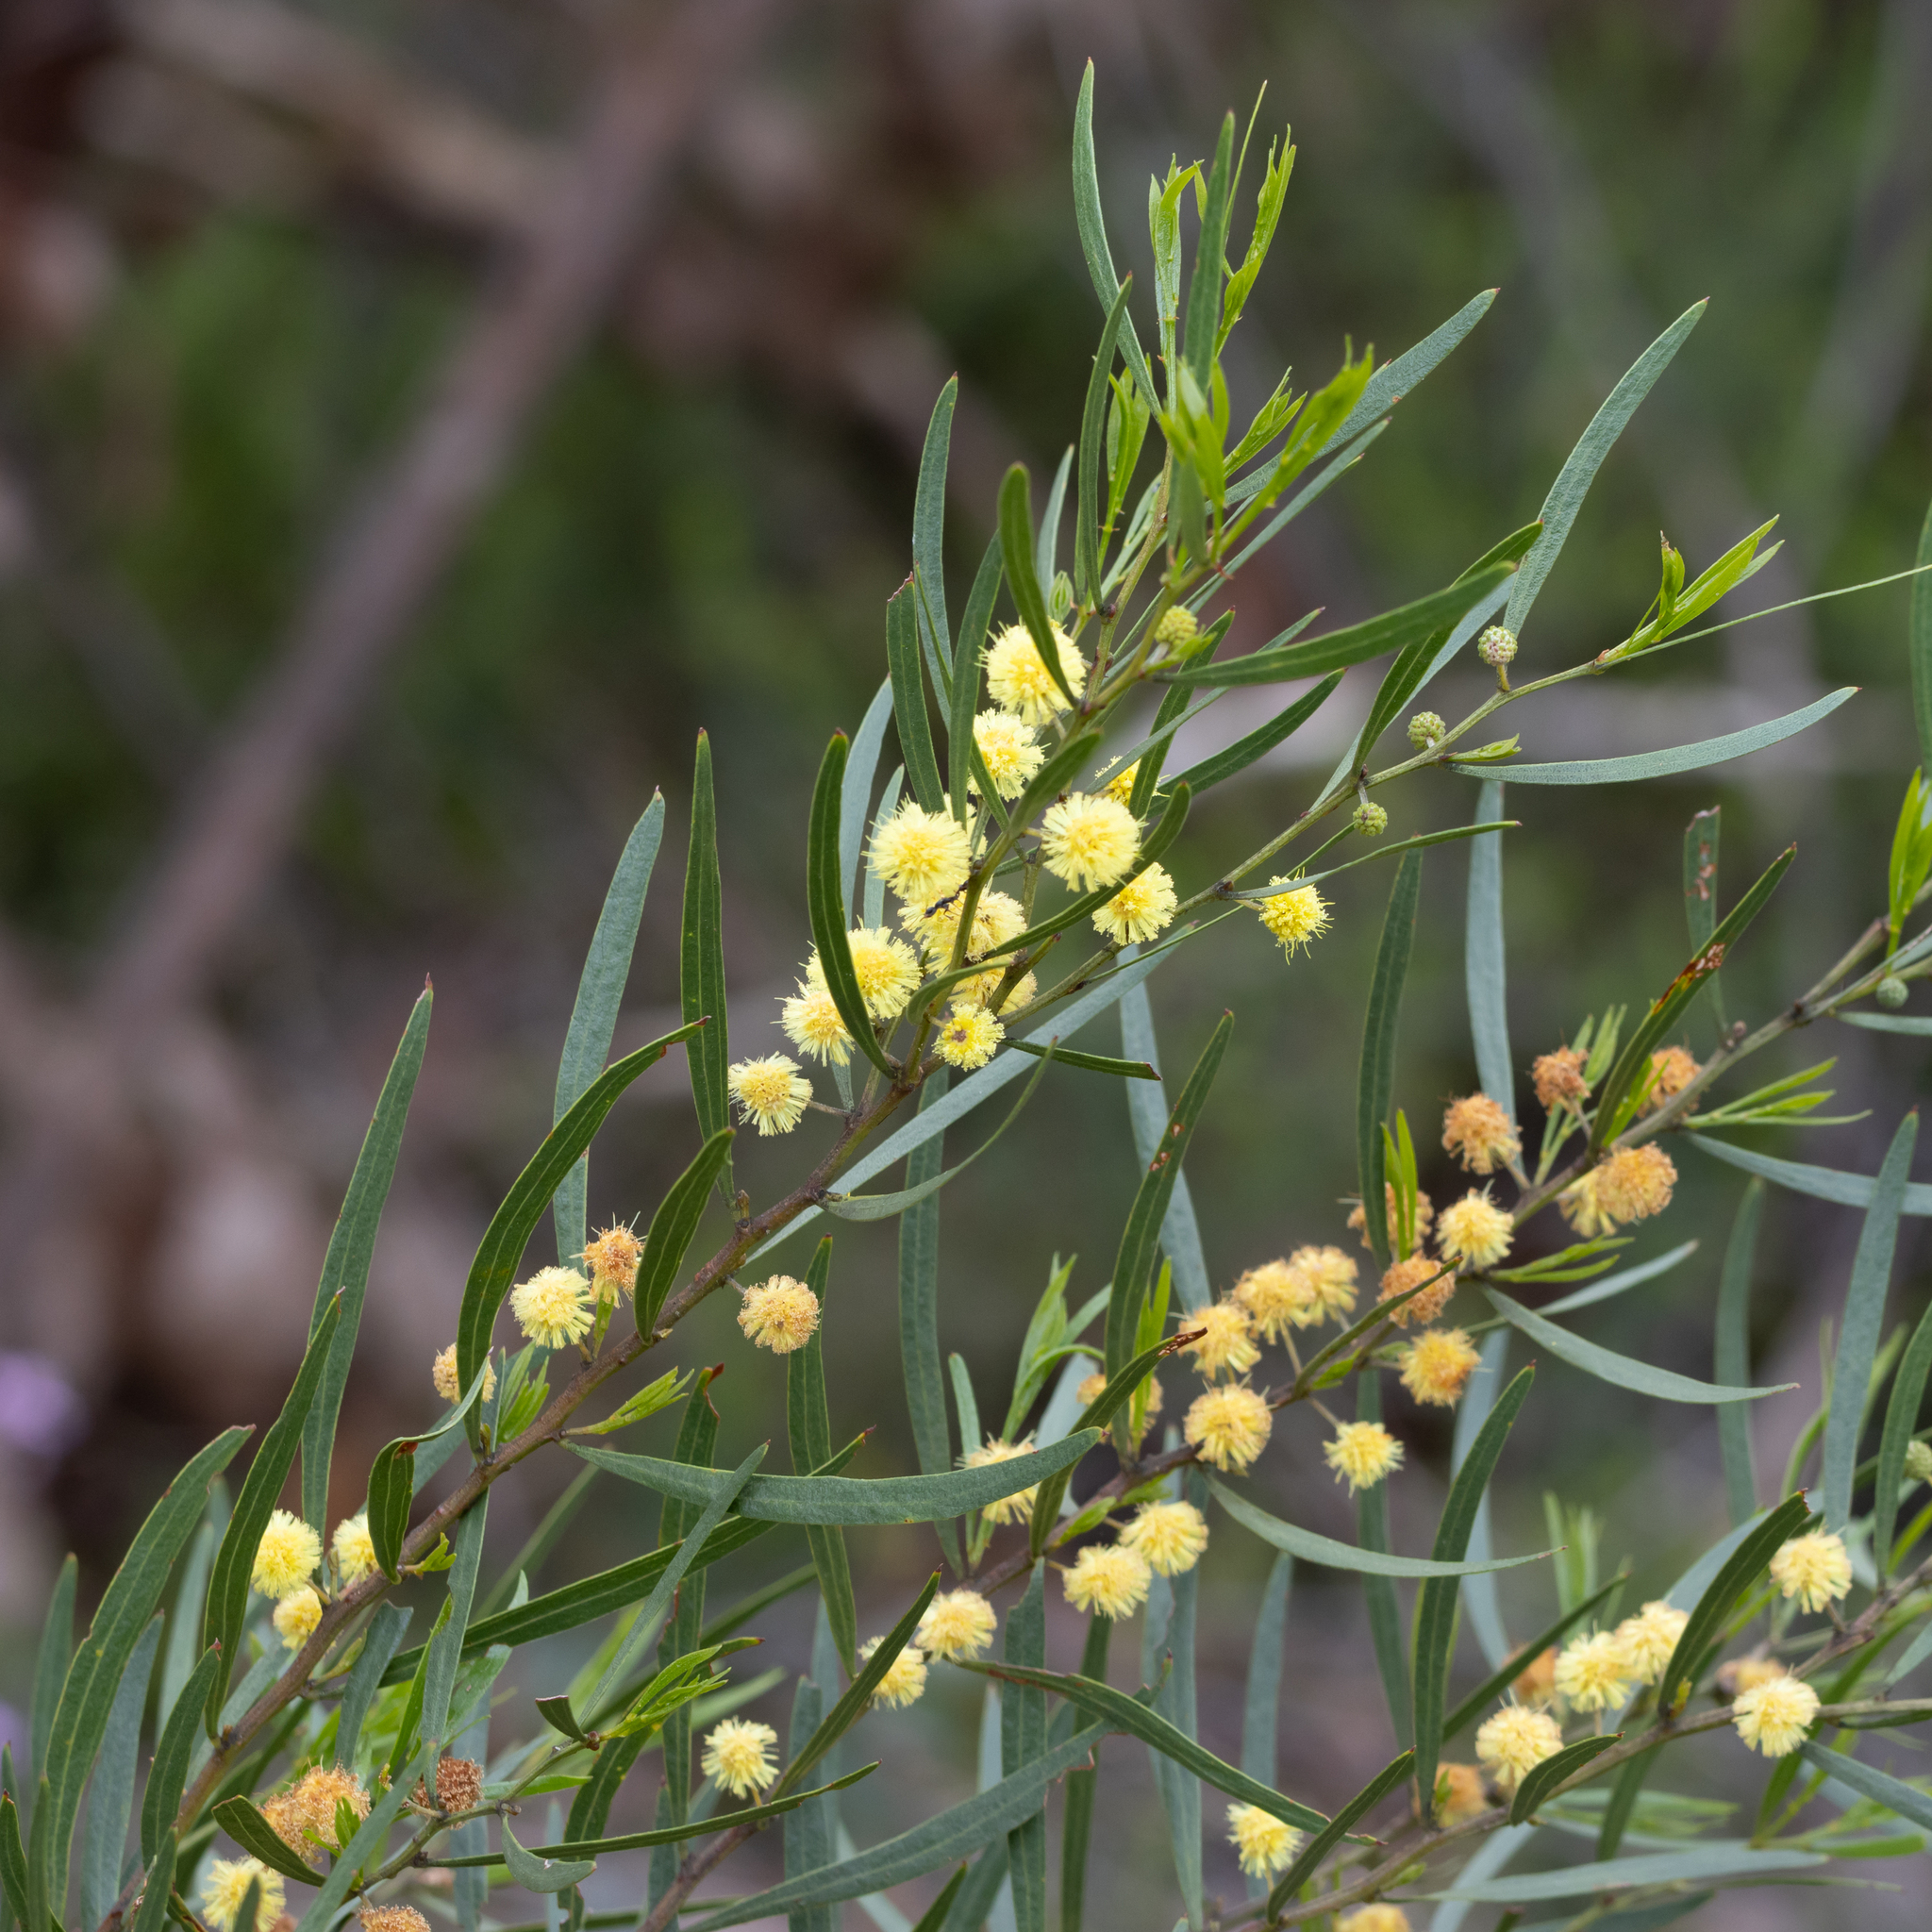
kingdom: Plantae
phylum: Tracheophyta
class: Magnoliopsida
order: Fabales
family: Fabaceae
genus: Acacia
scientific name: Acacia verniciflua
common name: Varnish wattle
